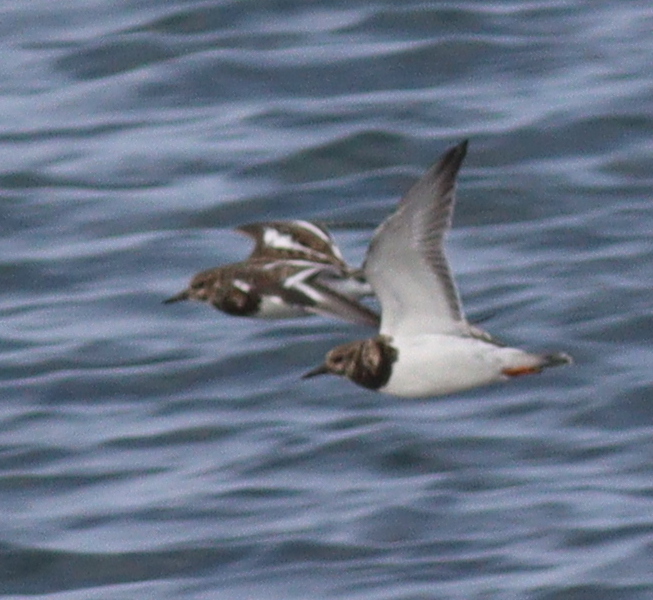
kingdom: Animalia
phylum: Chordata
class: Aves
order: Charadriiformes
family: Scolopacidae
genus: Arenaria
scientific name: Arenaria interpres
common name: Ruddy turnstone
